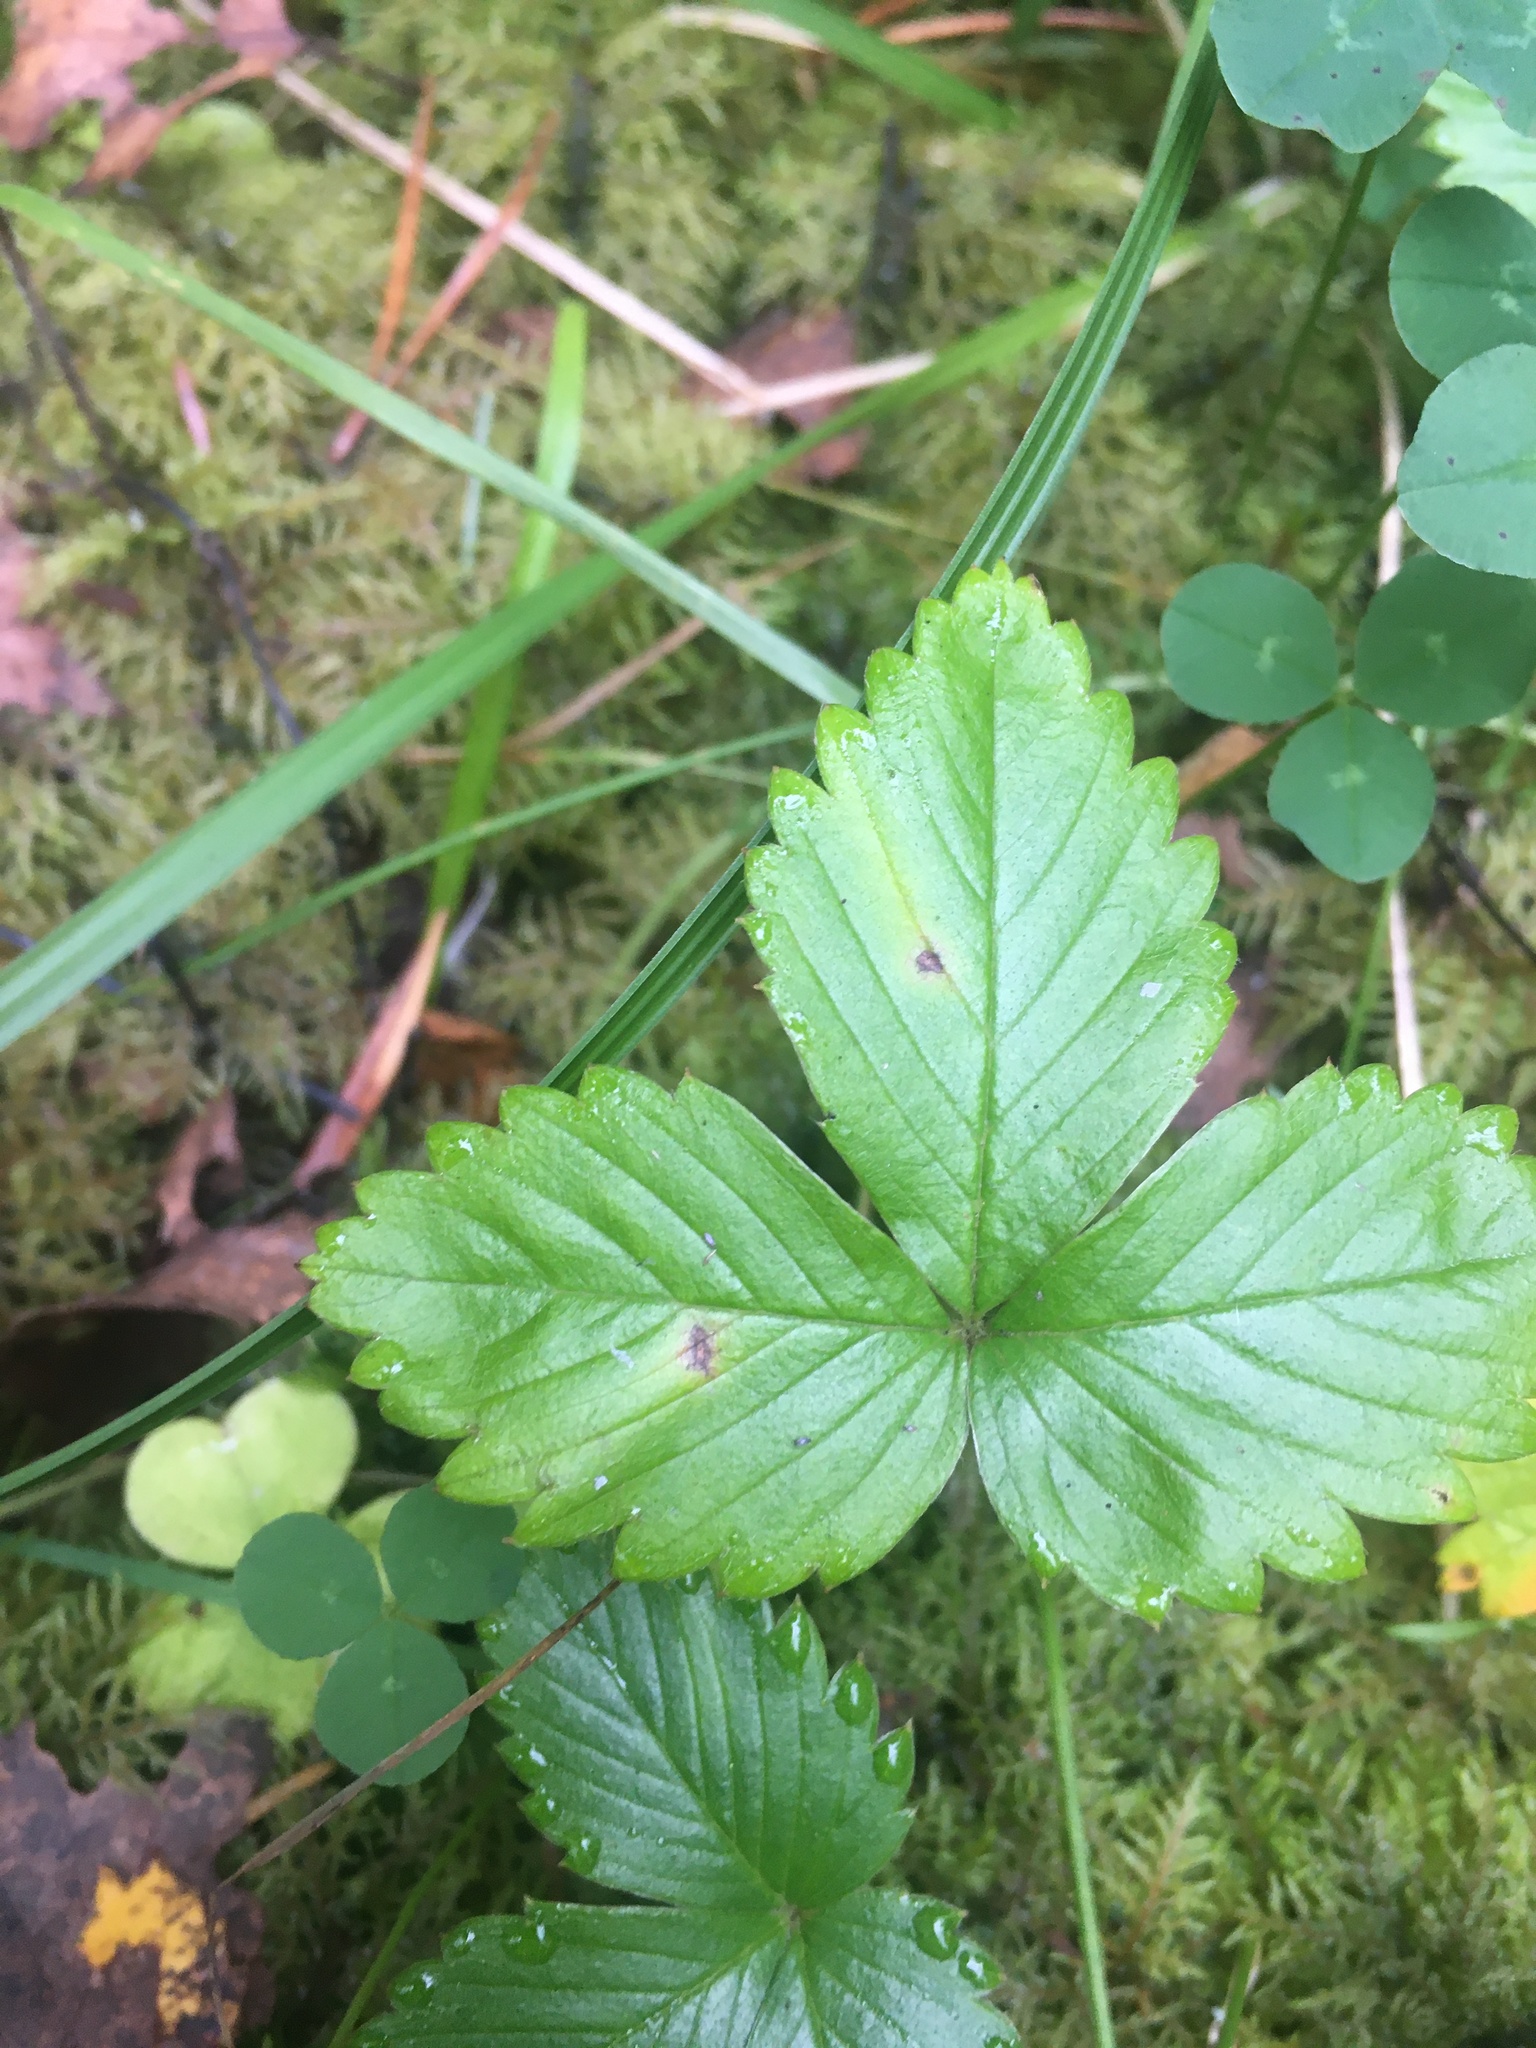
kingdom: Plantae
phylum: Tracheophyta
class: Magnoliopsida
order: Rosales
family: Rosaceae
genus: Fragaria
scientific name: Fragaria vesca
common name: Wild strawberry
